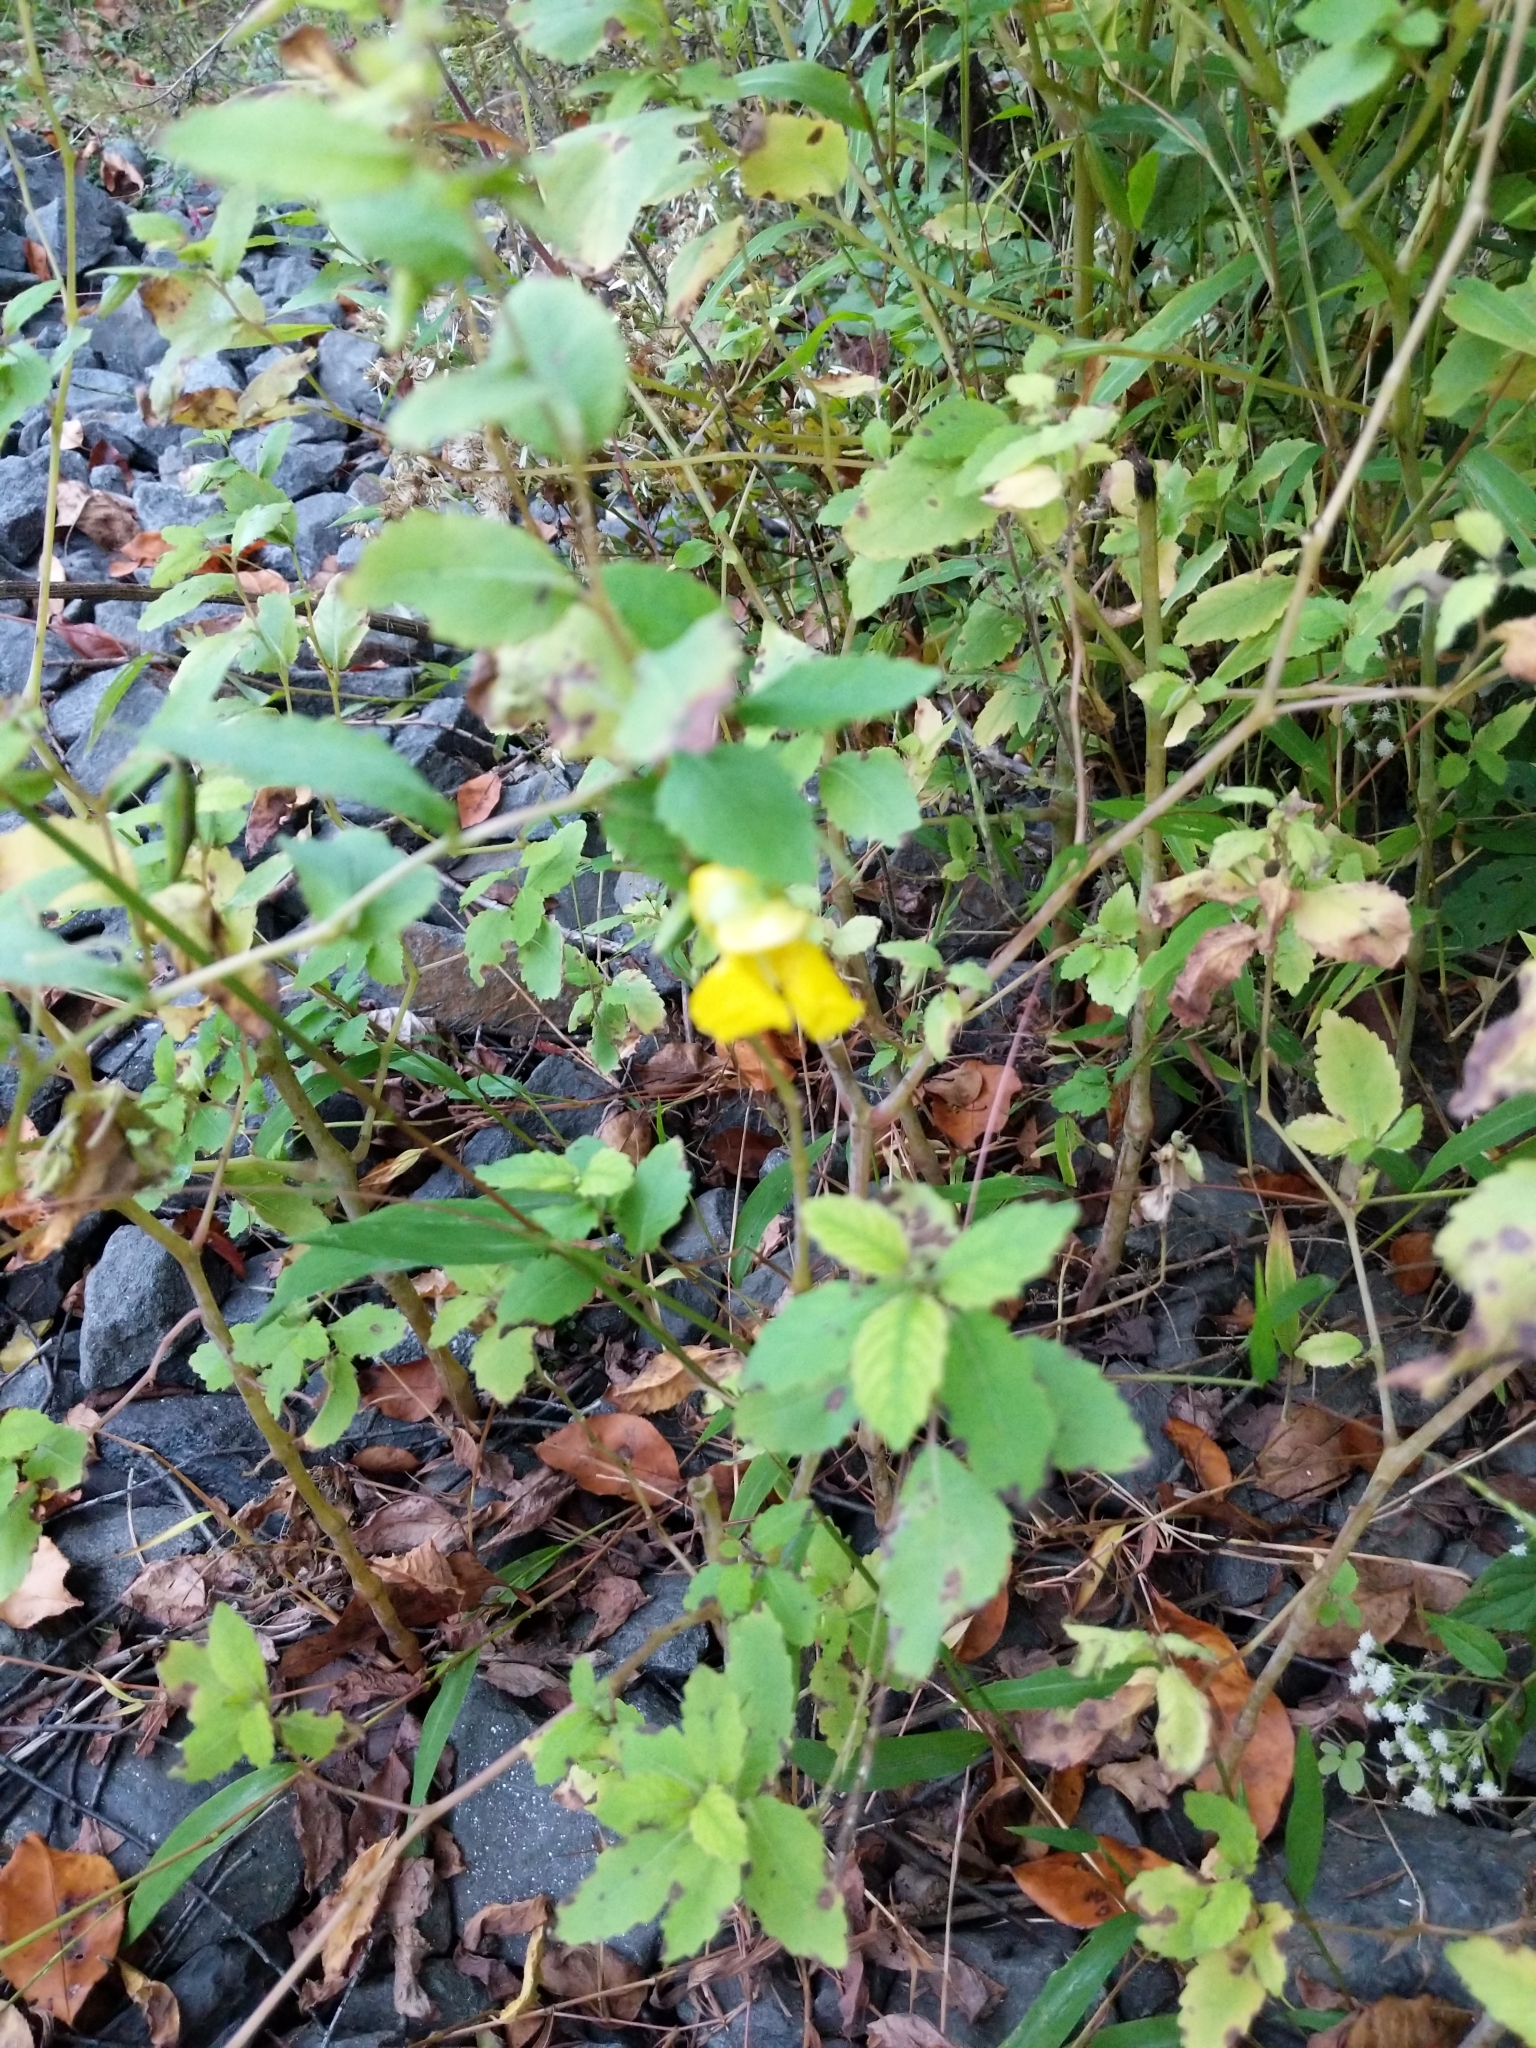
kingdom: Plantae
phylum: Tracheophyta
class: Magnoliopsida
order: Ericales
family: Balsaminaceae
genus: Impatiens
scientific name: Impatiens pallida
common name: Pale snapweed
